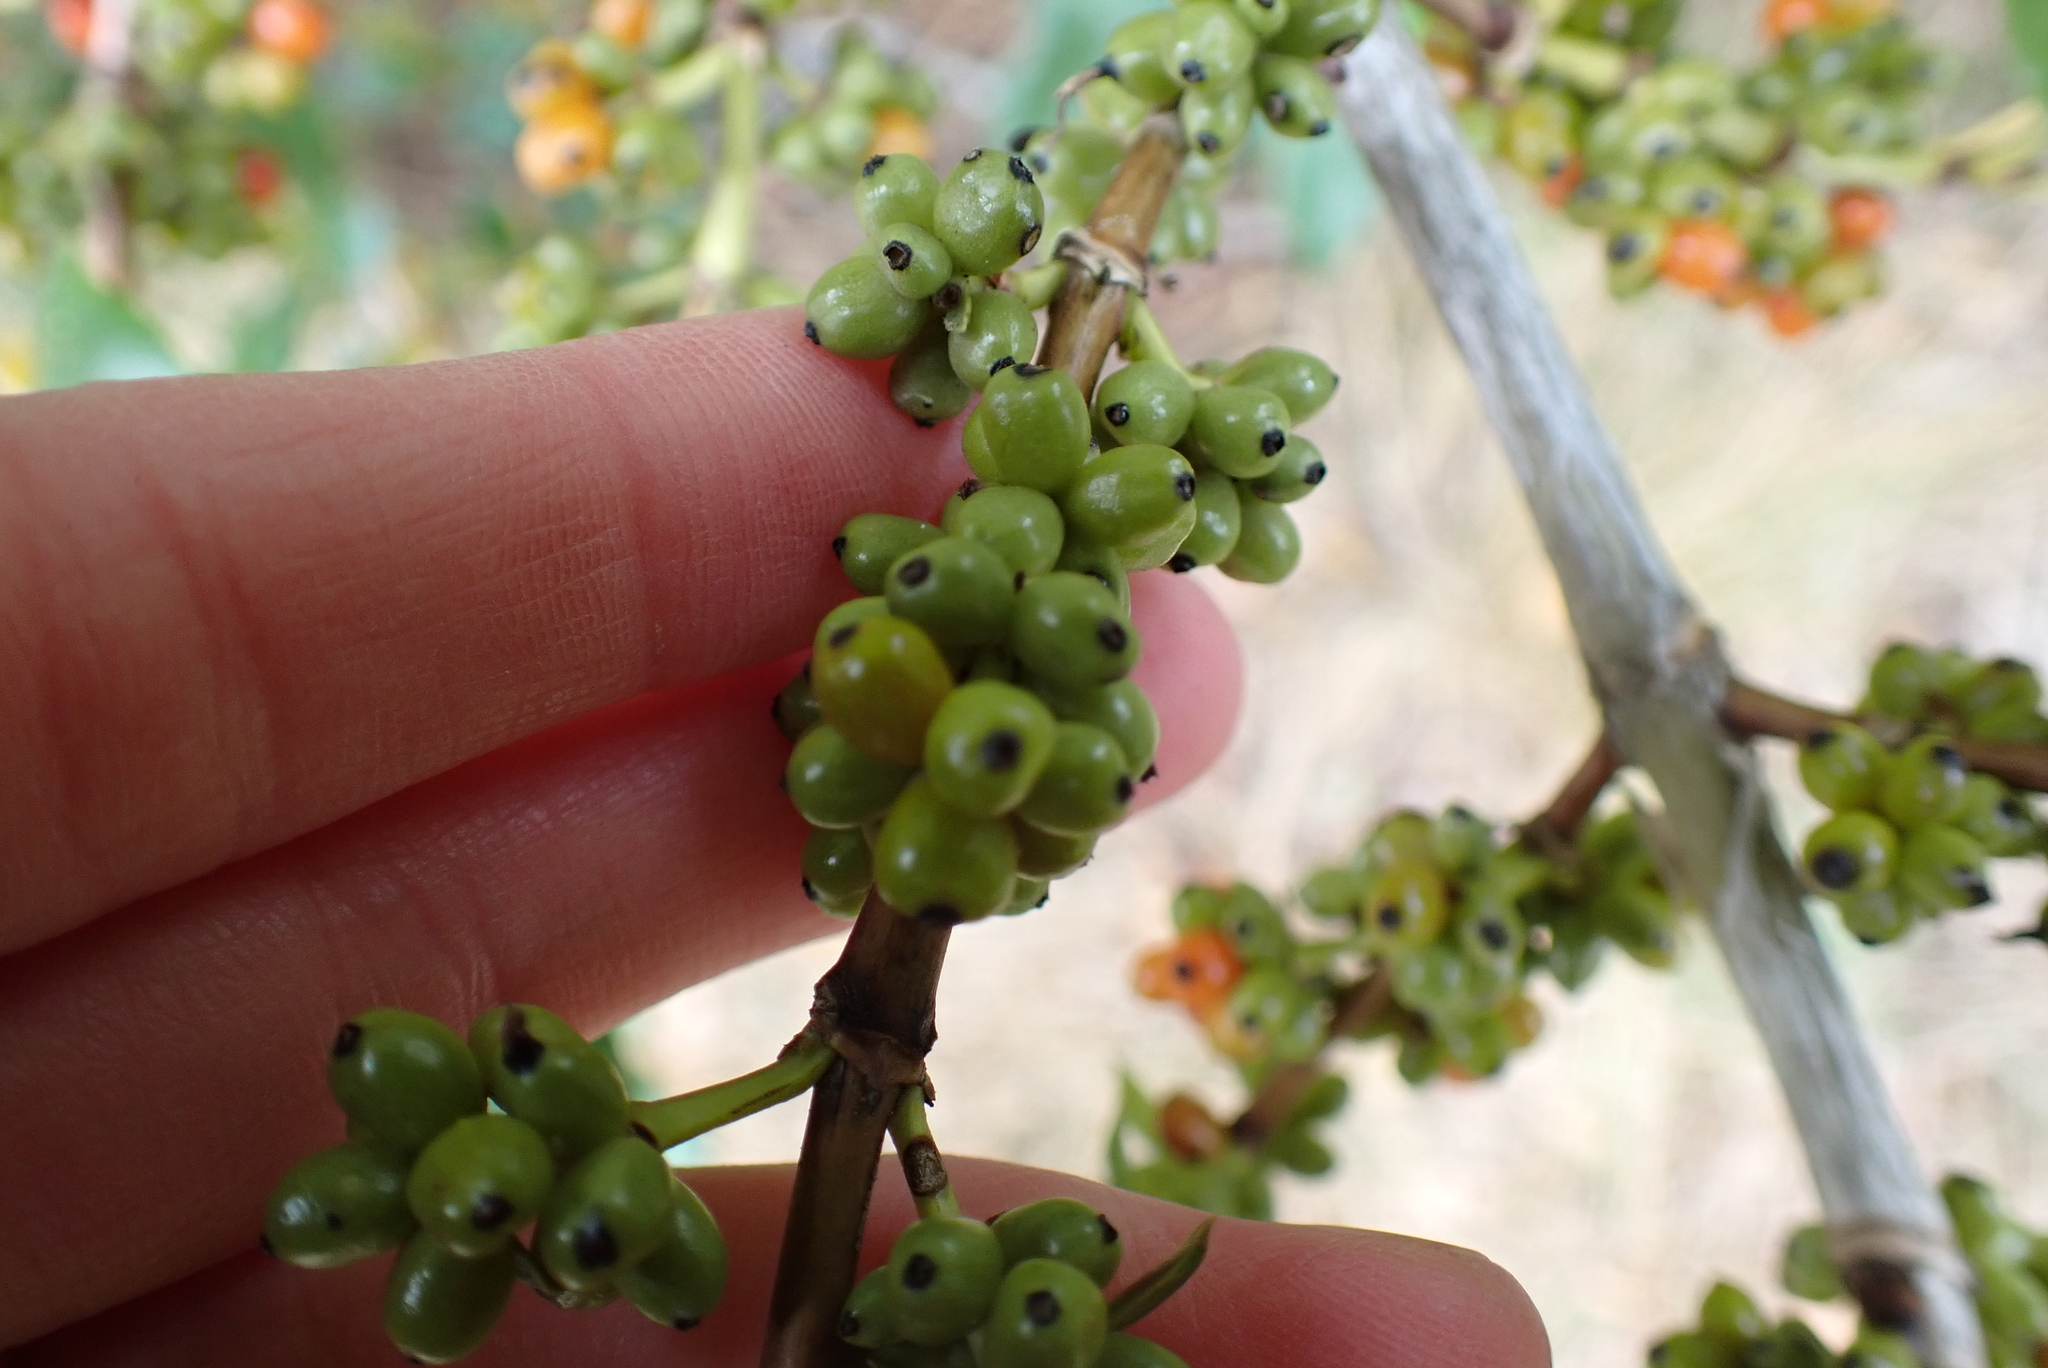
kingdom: Plantae
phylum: Tracheophyta
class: Magnoliopsida
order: Gentianales
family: Rubiaceae
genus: Coprosma
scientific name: Coprosma robusta
